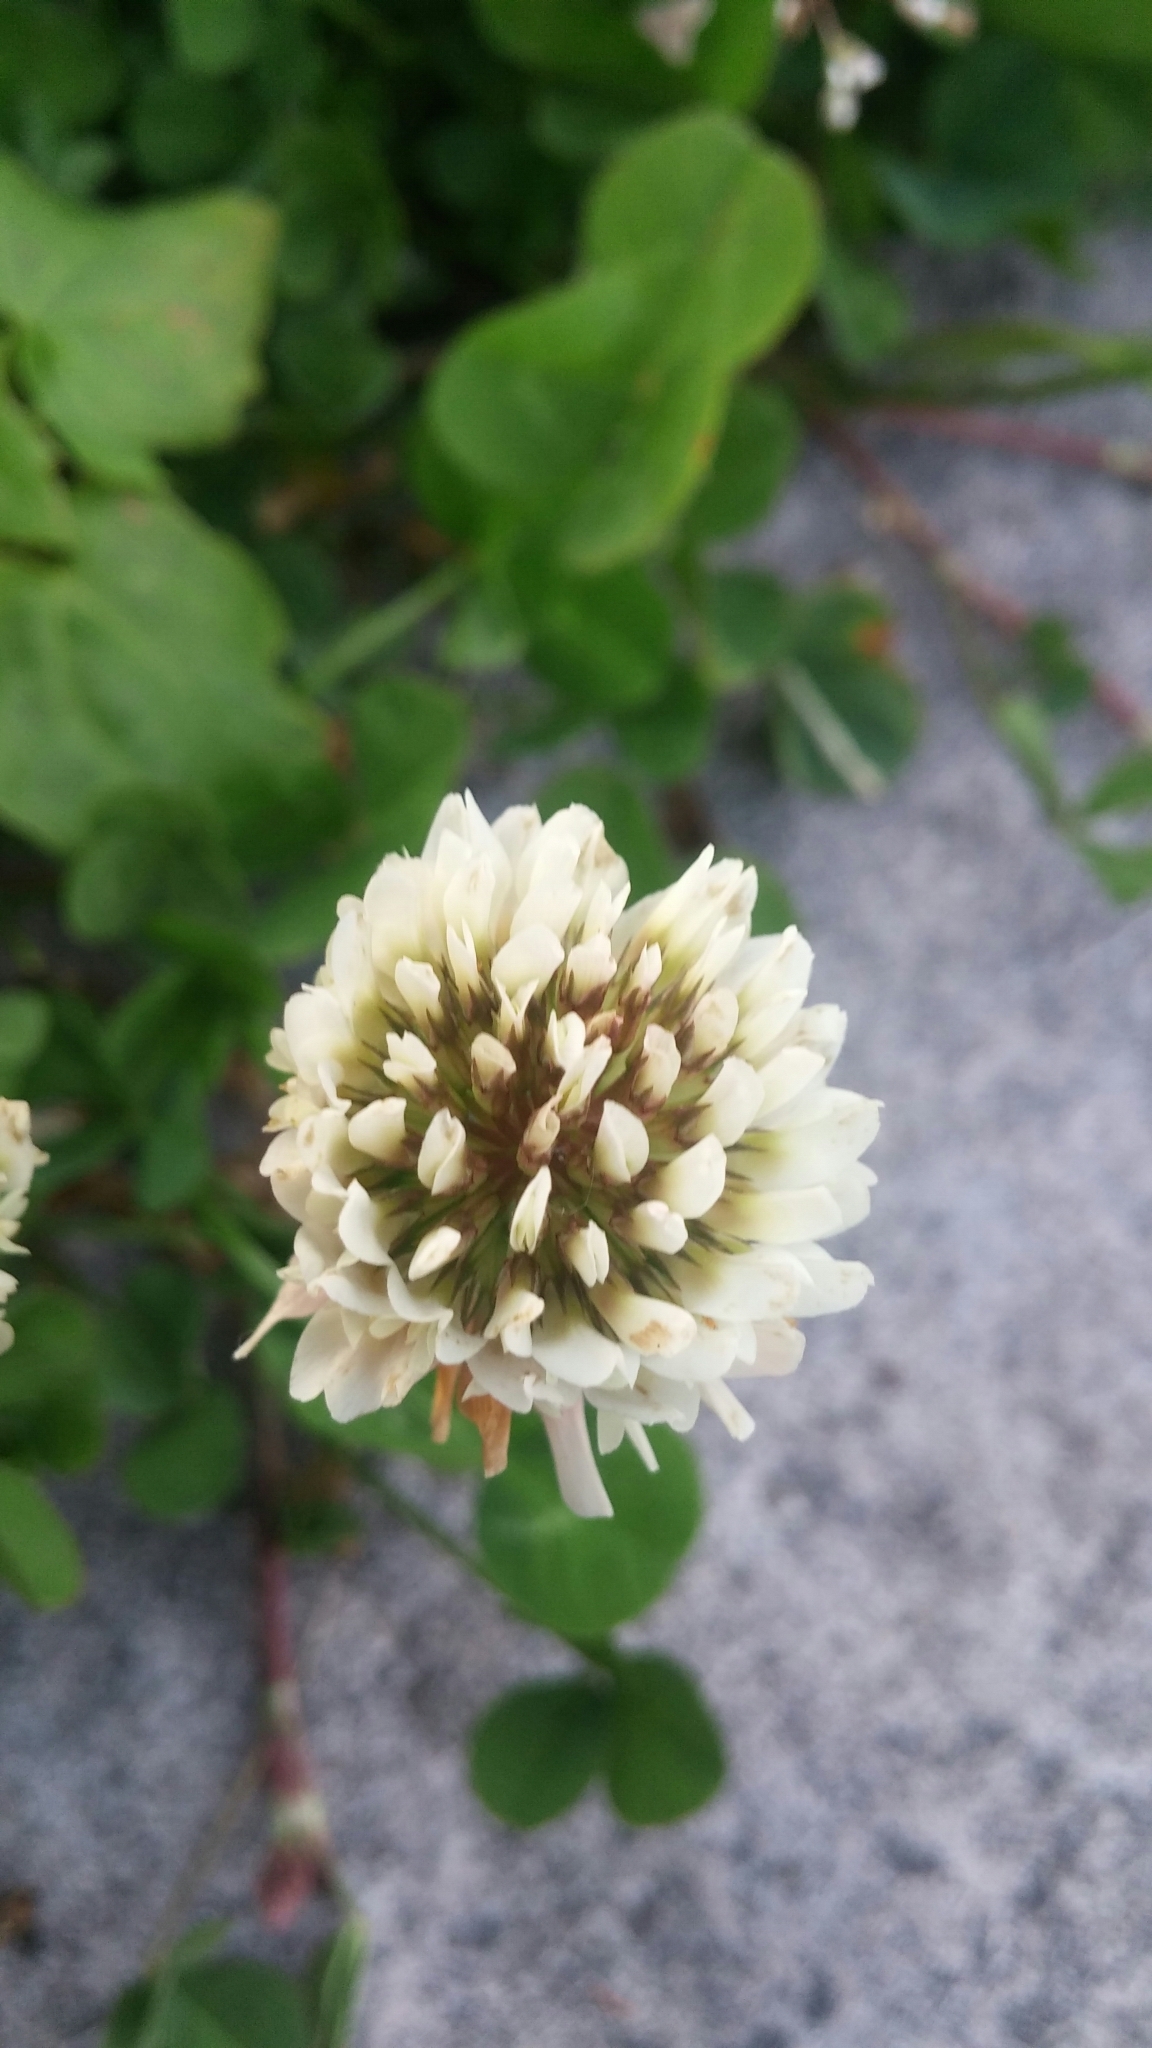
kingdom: Plantae
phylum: Tracheophyta
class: Magnoliopsida
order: Fabales
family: Fabaceae
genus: Trifolium
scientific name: Trifolium repens
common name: White clover
